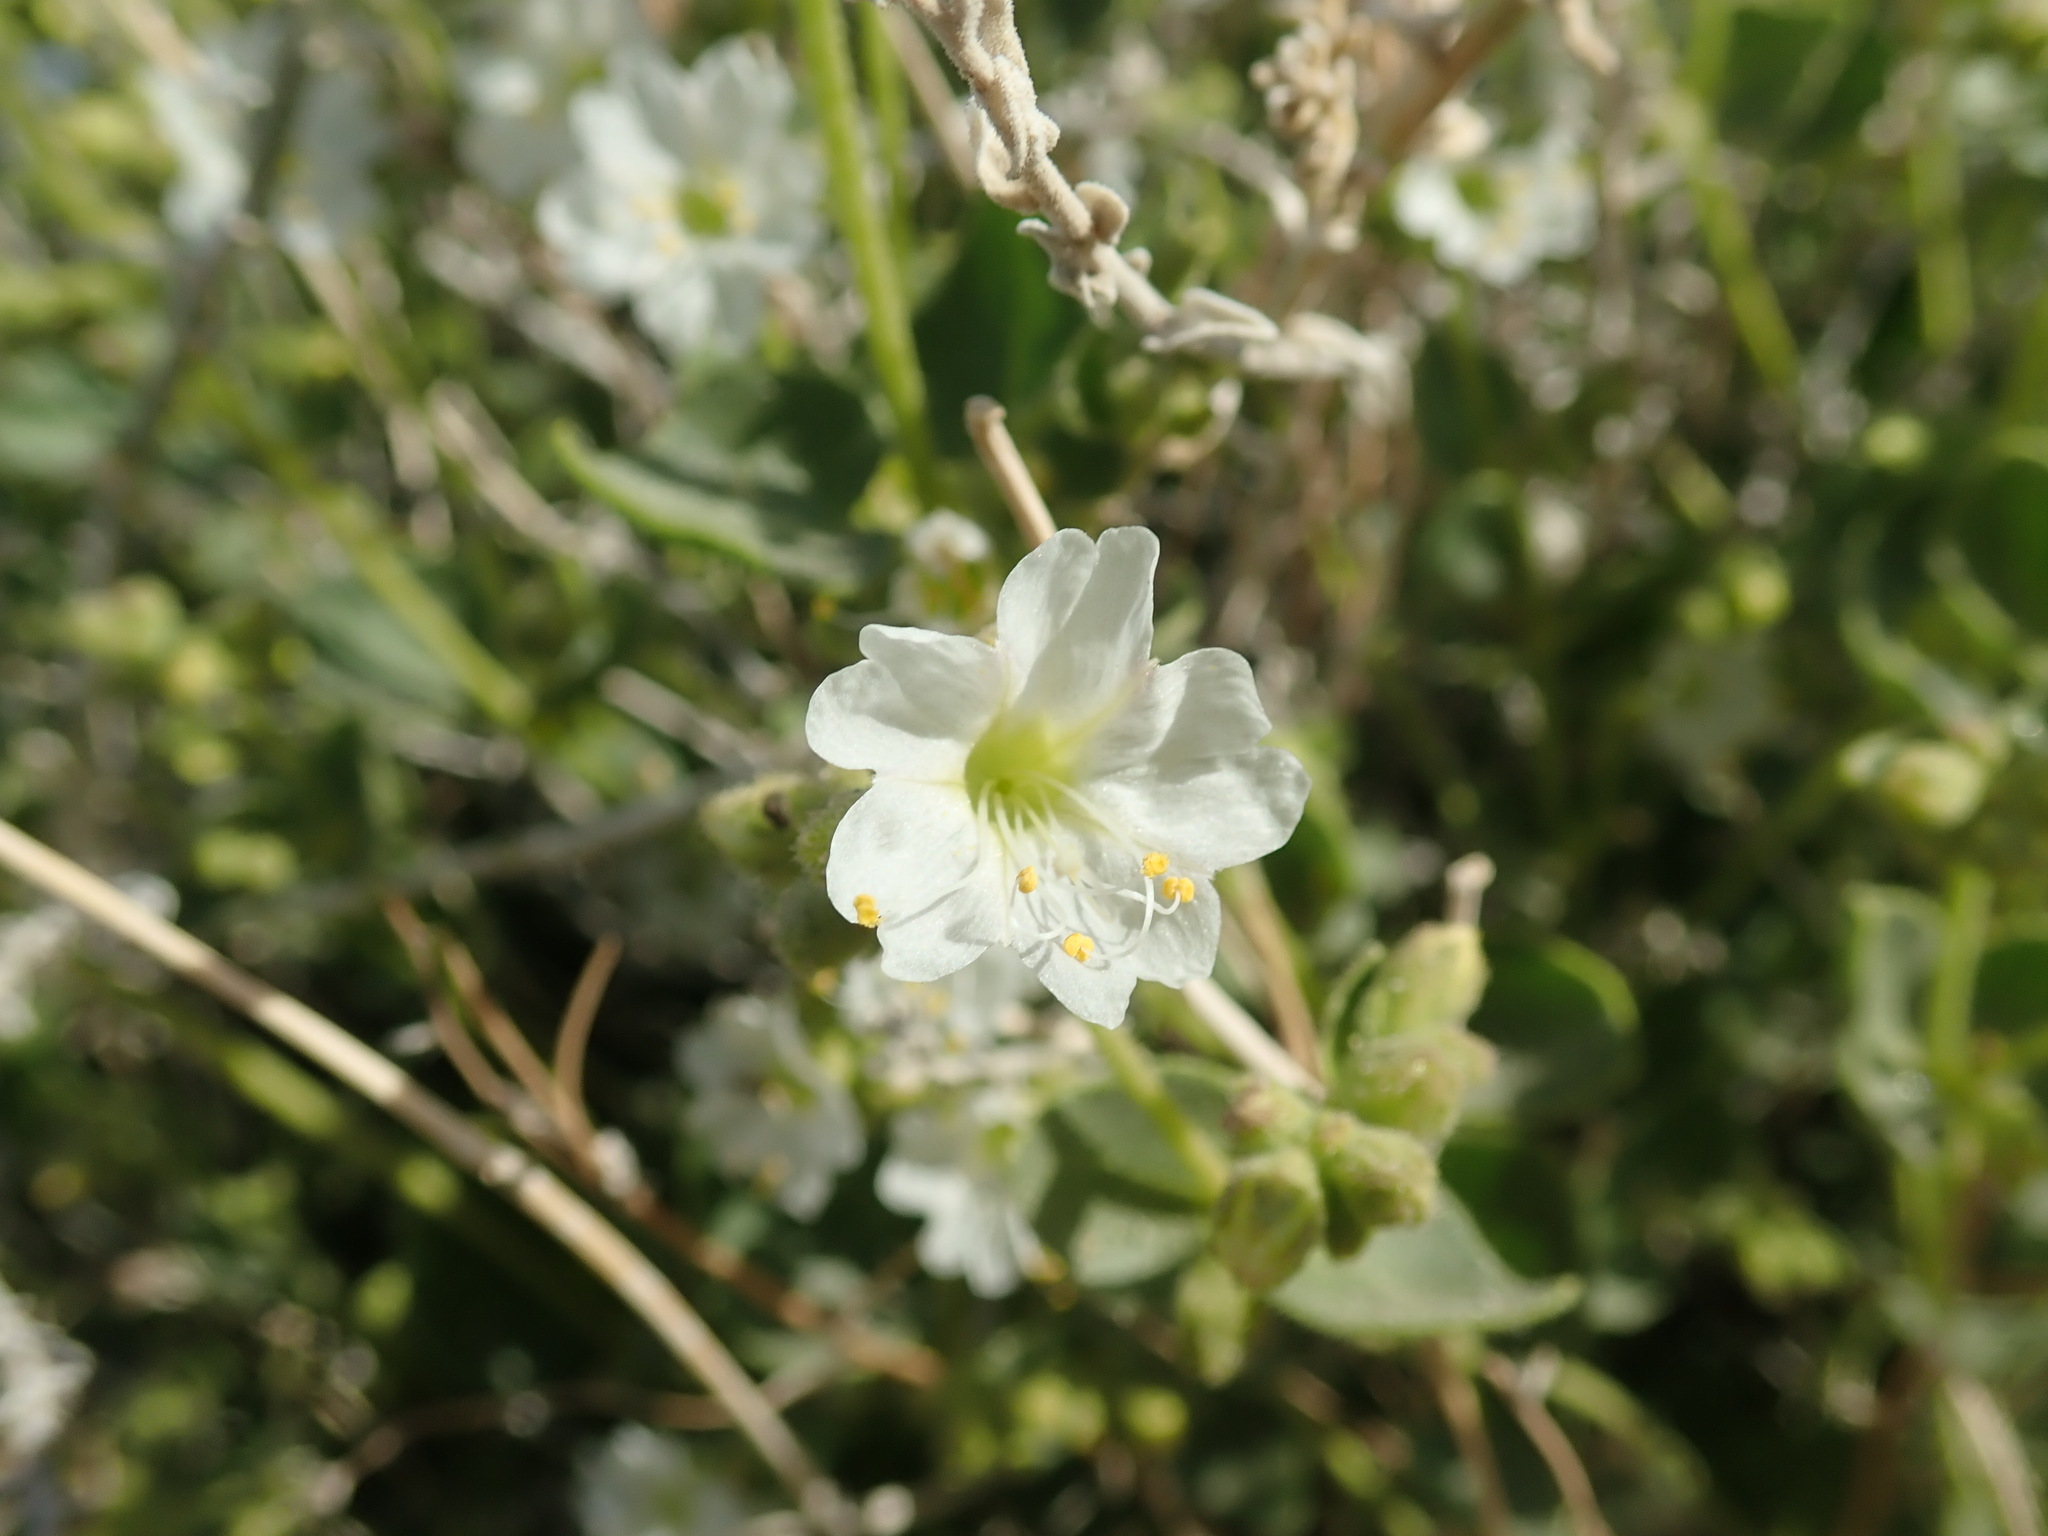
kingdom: Plantae
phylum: Tracheophyta
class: Magnoliopsida
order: Caryophyllales
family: Nyctaginaceae
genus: Mirabilis
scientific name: Mirabilis laevis
